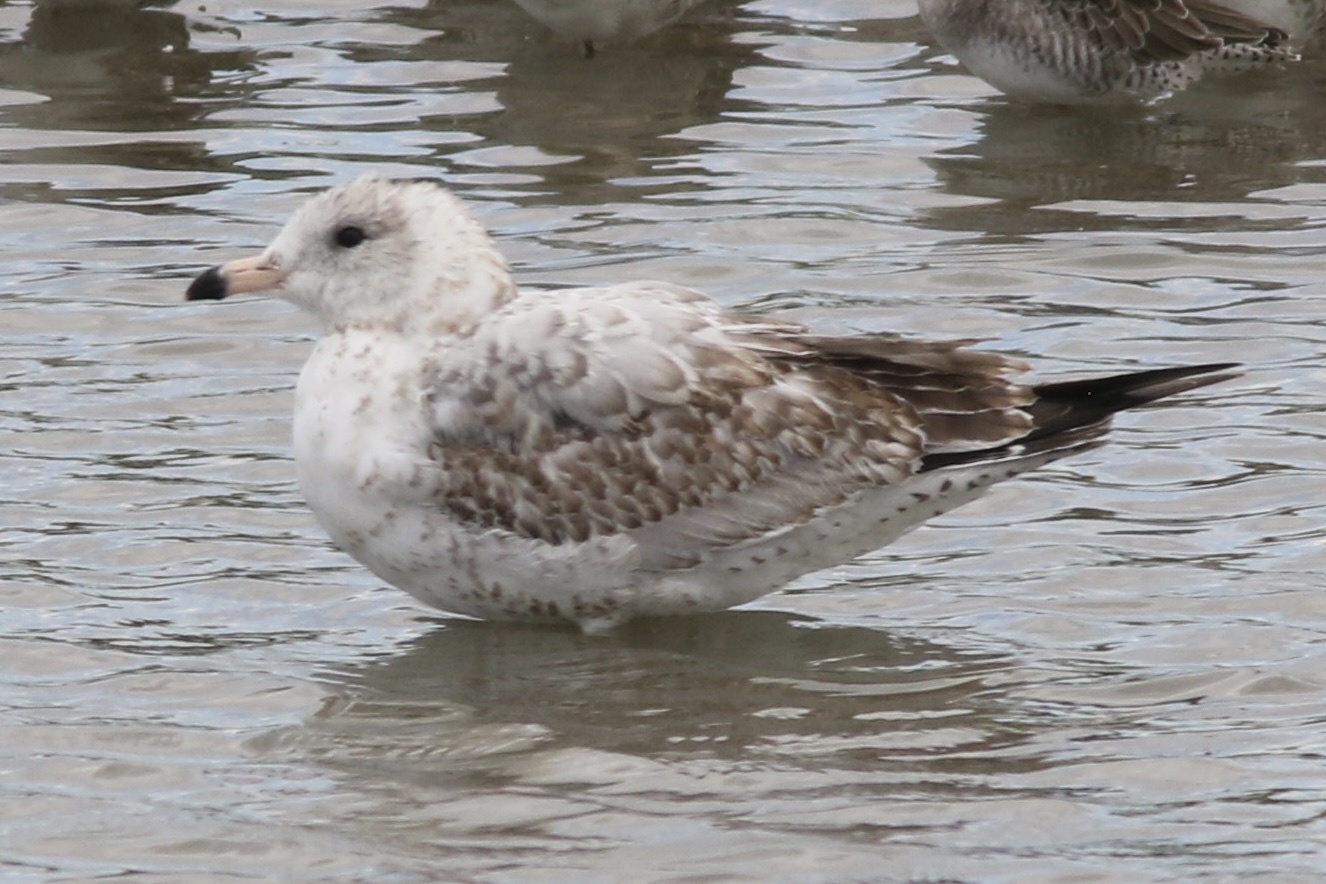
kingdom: Animalia
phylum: Chordata
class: Aves
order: Charadriiformes
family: Laridae
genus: Larus
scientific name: Larus delawarensis
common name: Ring-billed gull
